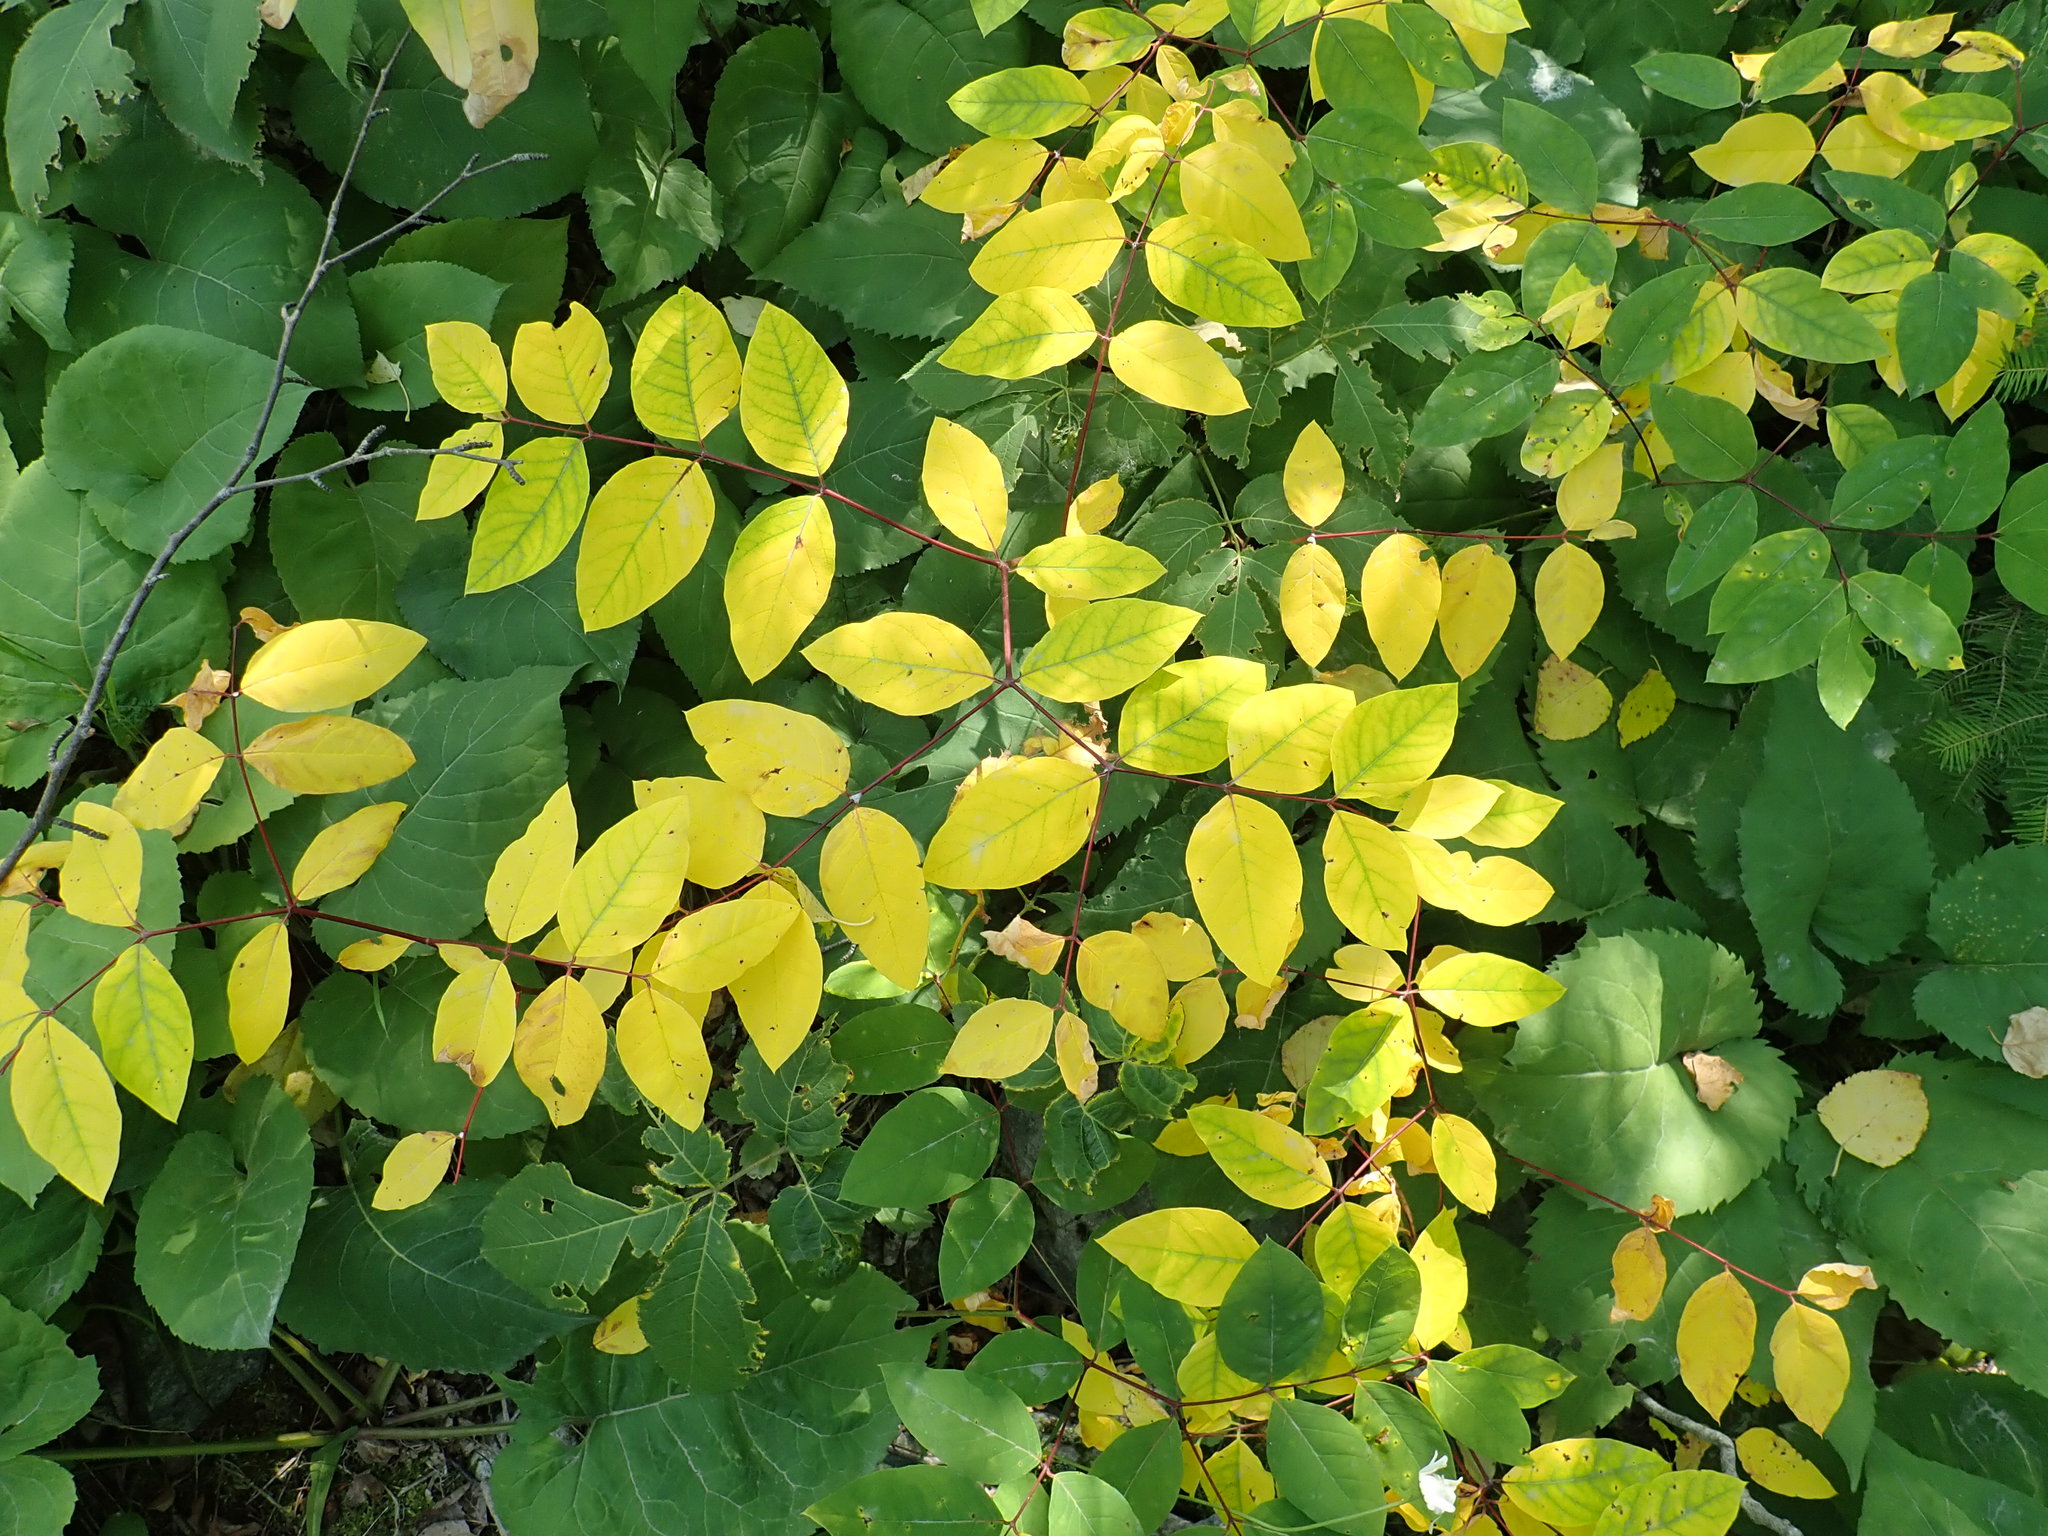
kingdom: Plantae
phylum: Tracheophyta
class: Magnoliopsida
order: Gentianales
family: Apocynaceae
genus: Apocynum
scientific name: Apocynum androsaemifolium
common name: Spreading dogbane
